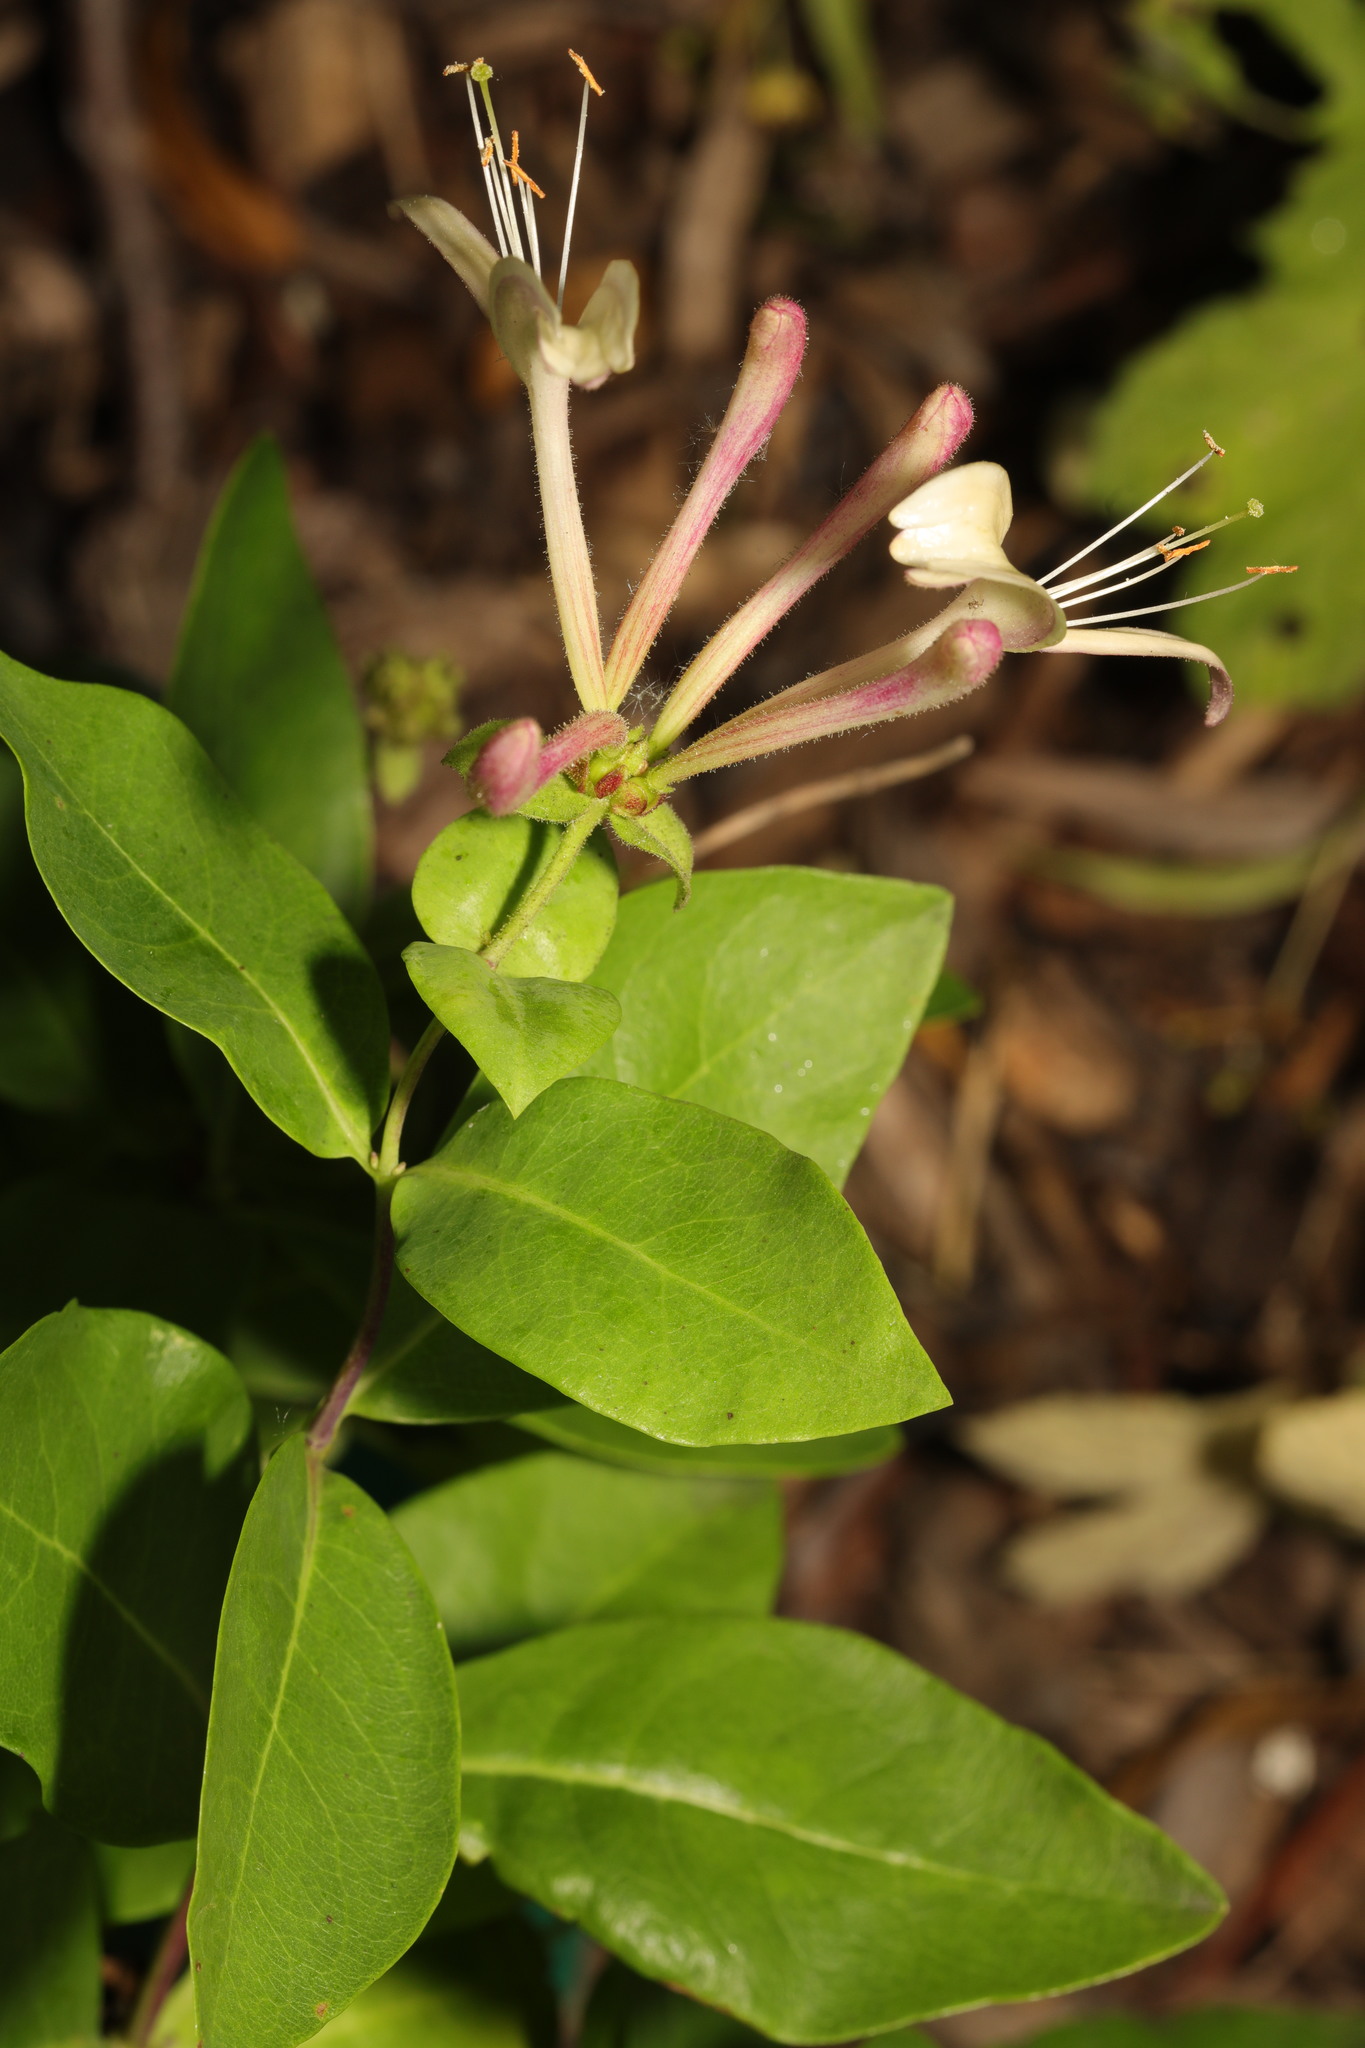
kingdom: Plantae
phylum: Tracheophyta
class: Magnoliopsida
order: Dipsacales
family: Caprifoliaceae
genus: Lonicera
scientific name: Lonicera periclymenum
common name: European honeysuckle
